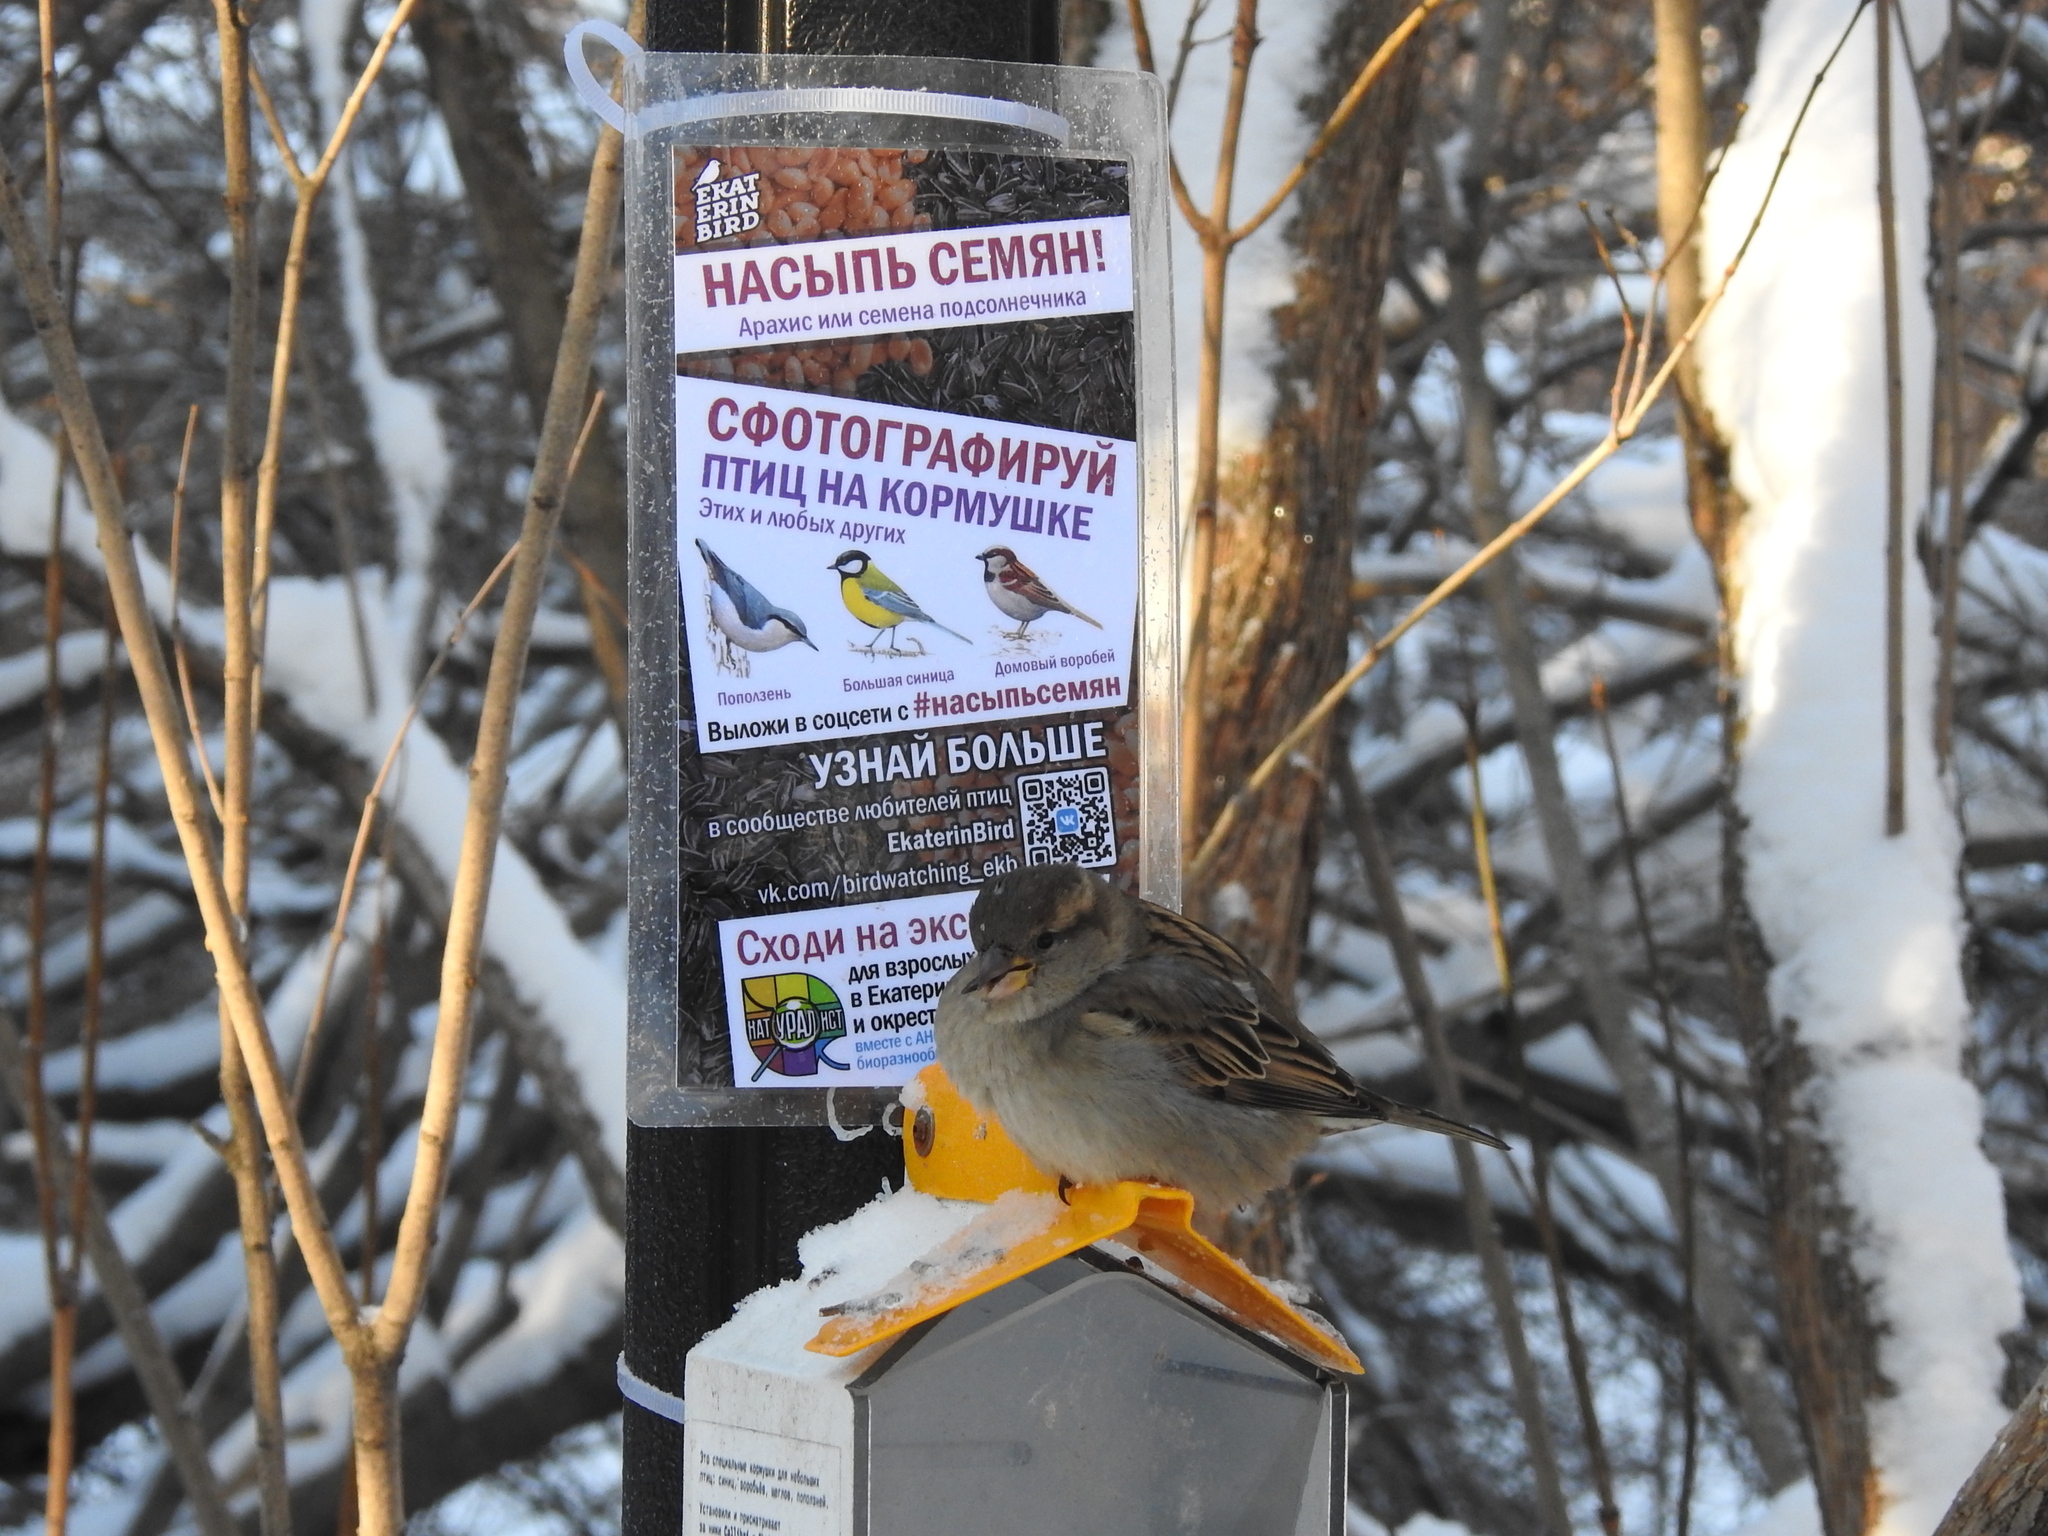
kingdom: Animalia
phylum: Chordata
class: Aves
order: Passeriformes
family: Passeridae
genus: Passer
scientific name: Passer domesticus
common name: House sparrow
